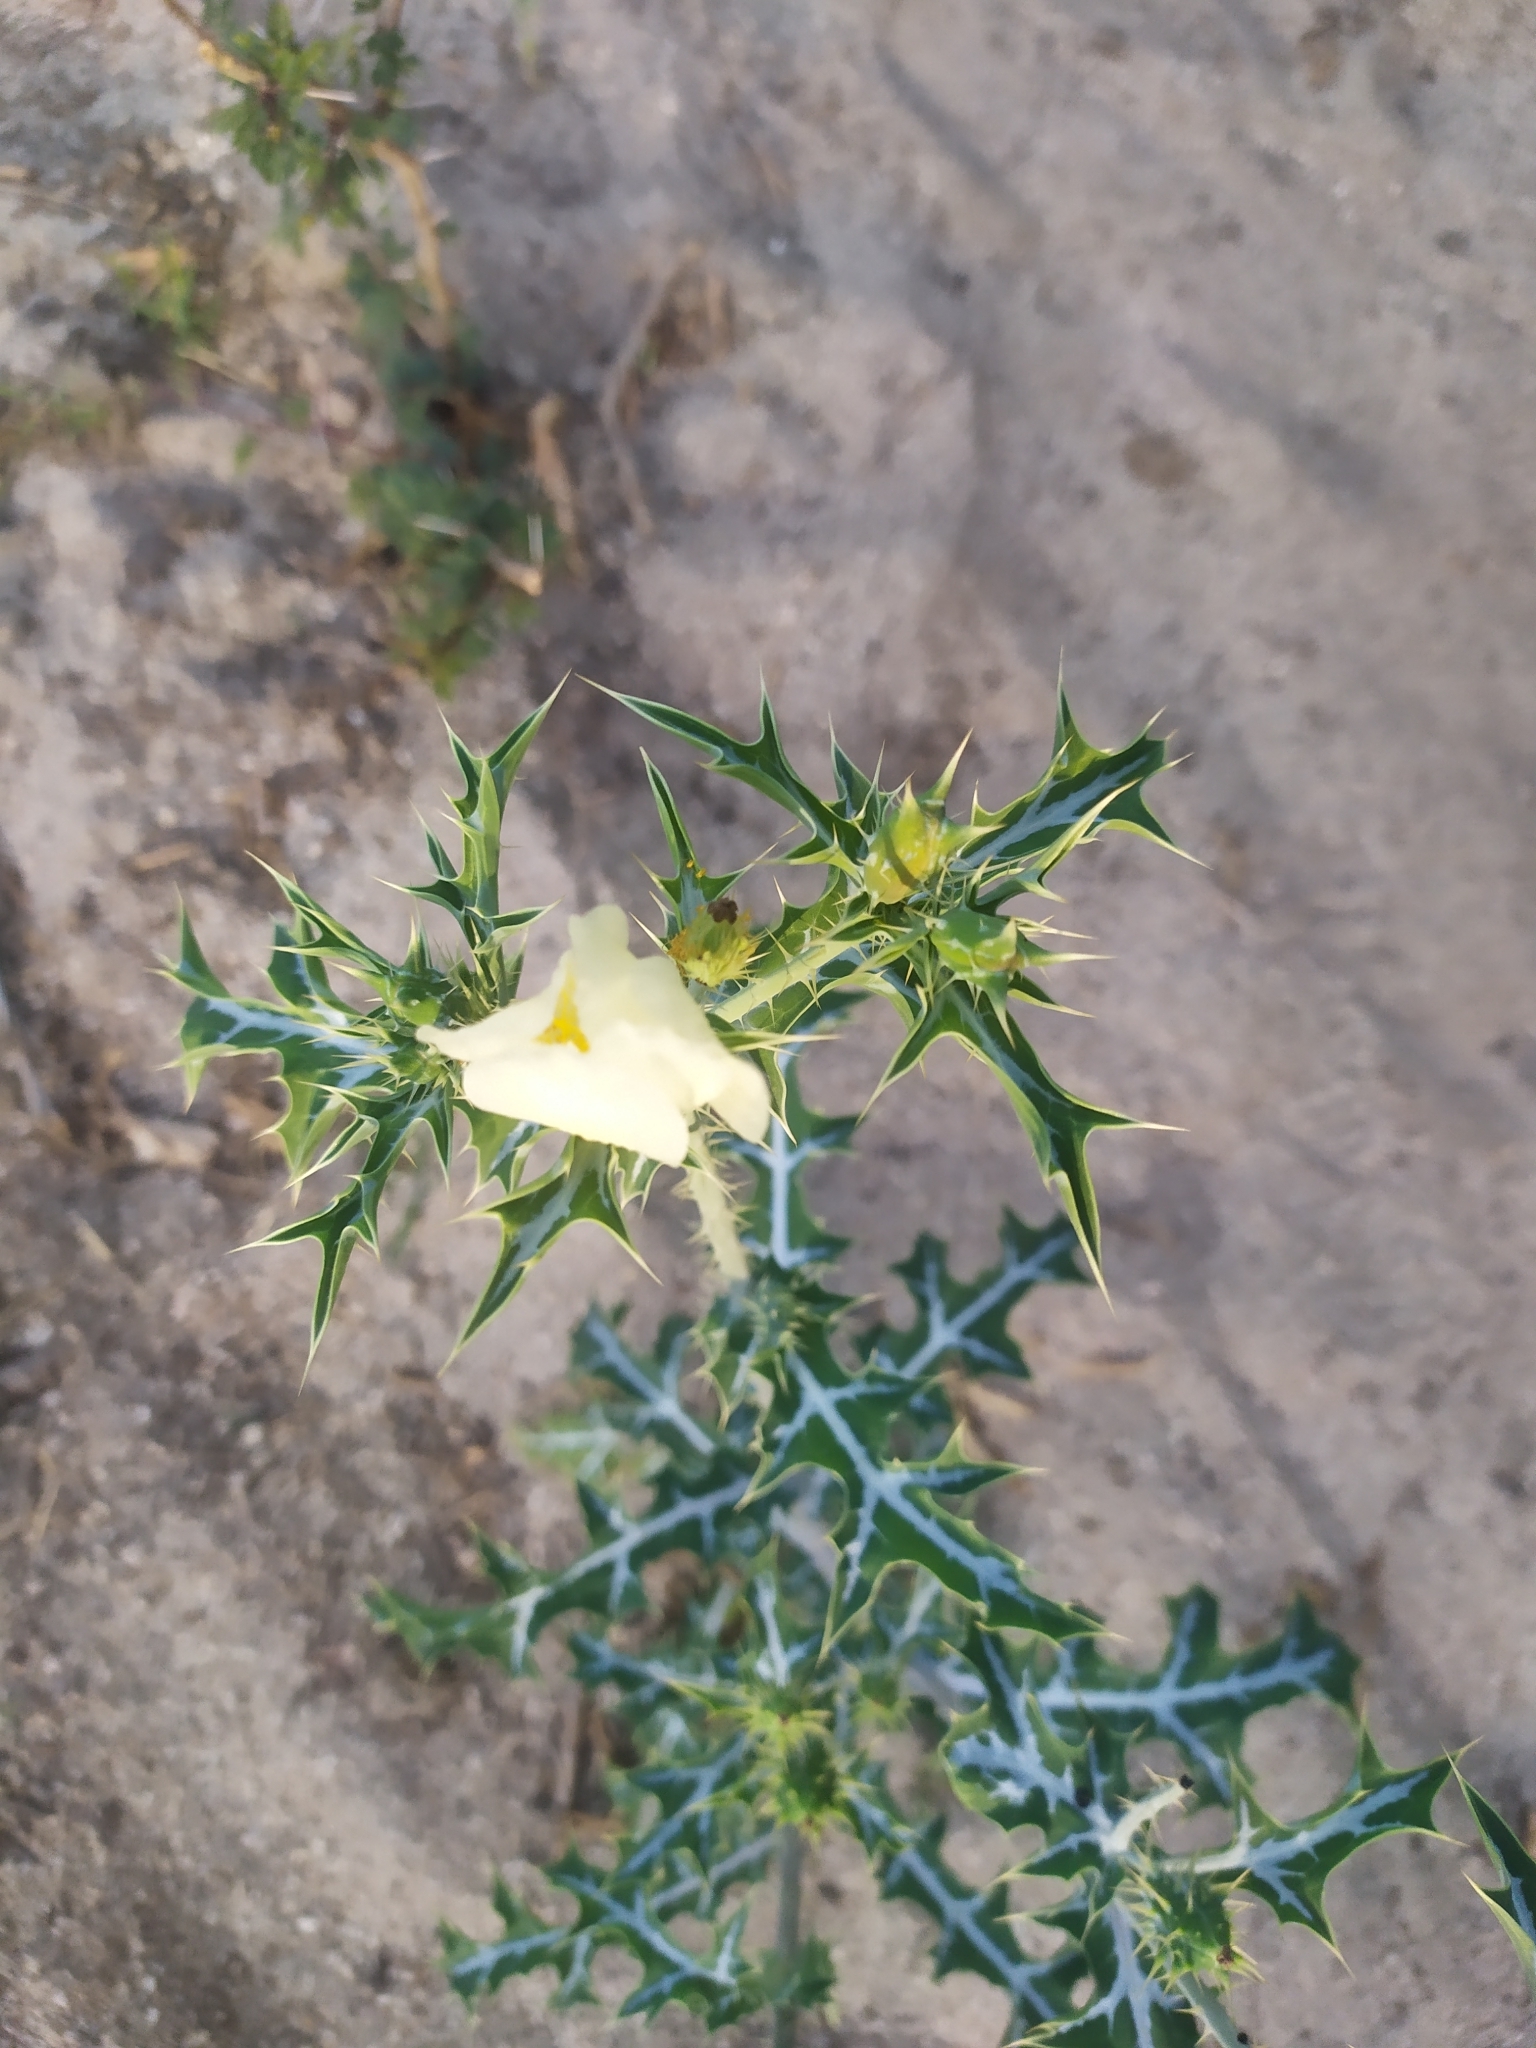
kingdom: Plantae
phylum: Tracheophyta
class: Magnoliopsida
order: Ranunculales
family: Papaveraceae
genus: Argemone
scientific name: Argemone ochroleuca
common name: White-flower mexican-poppy
